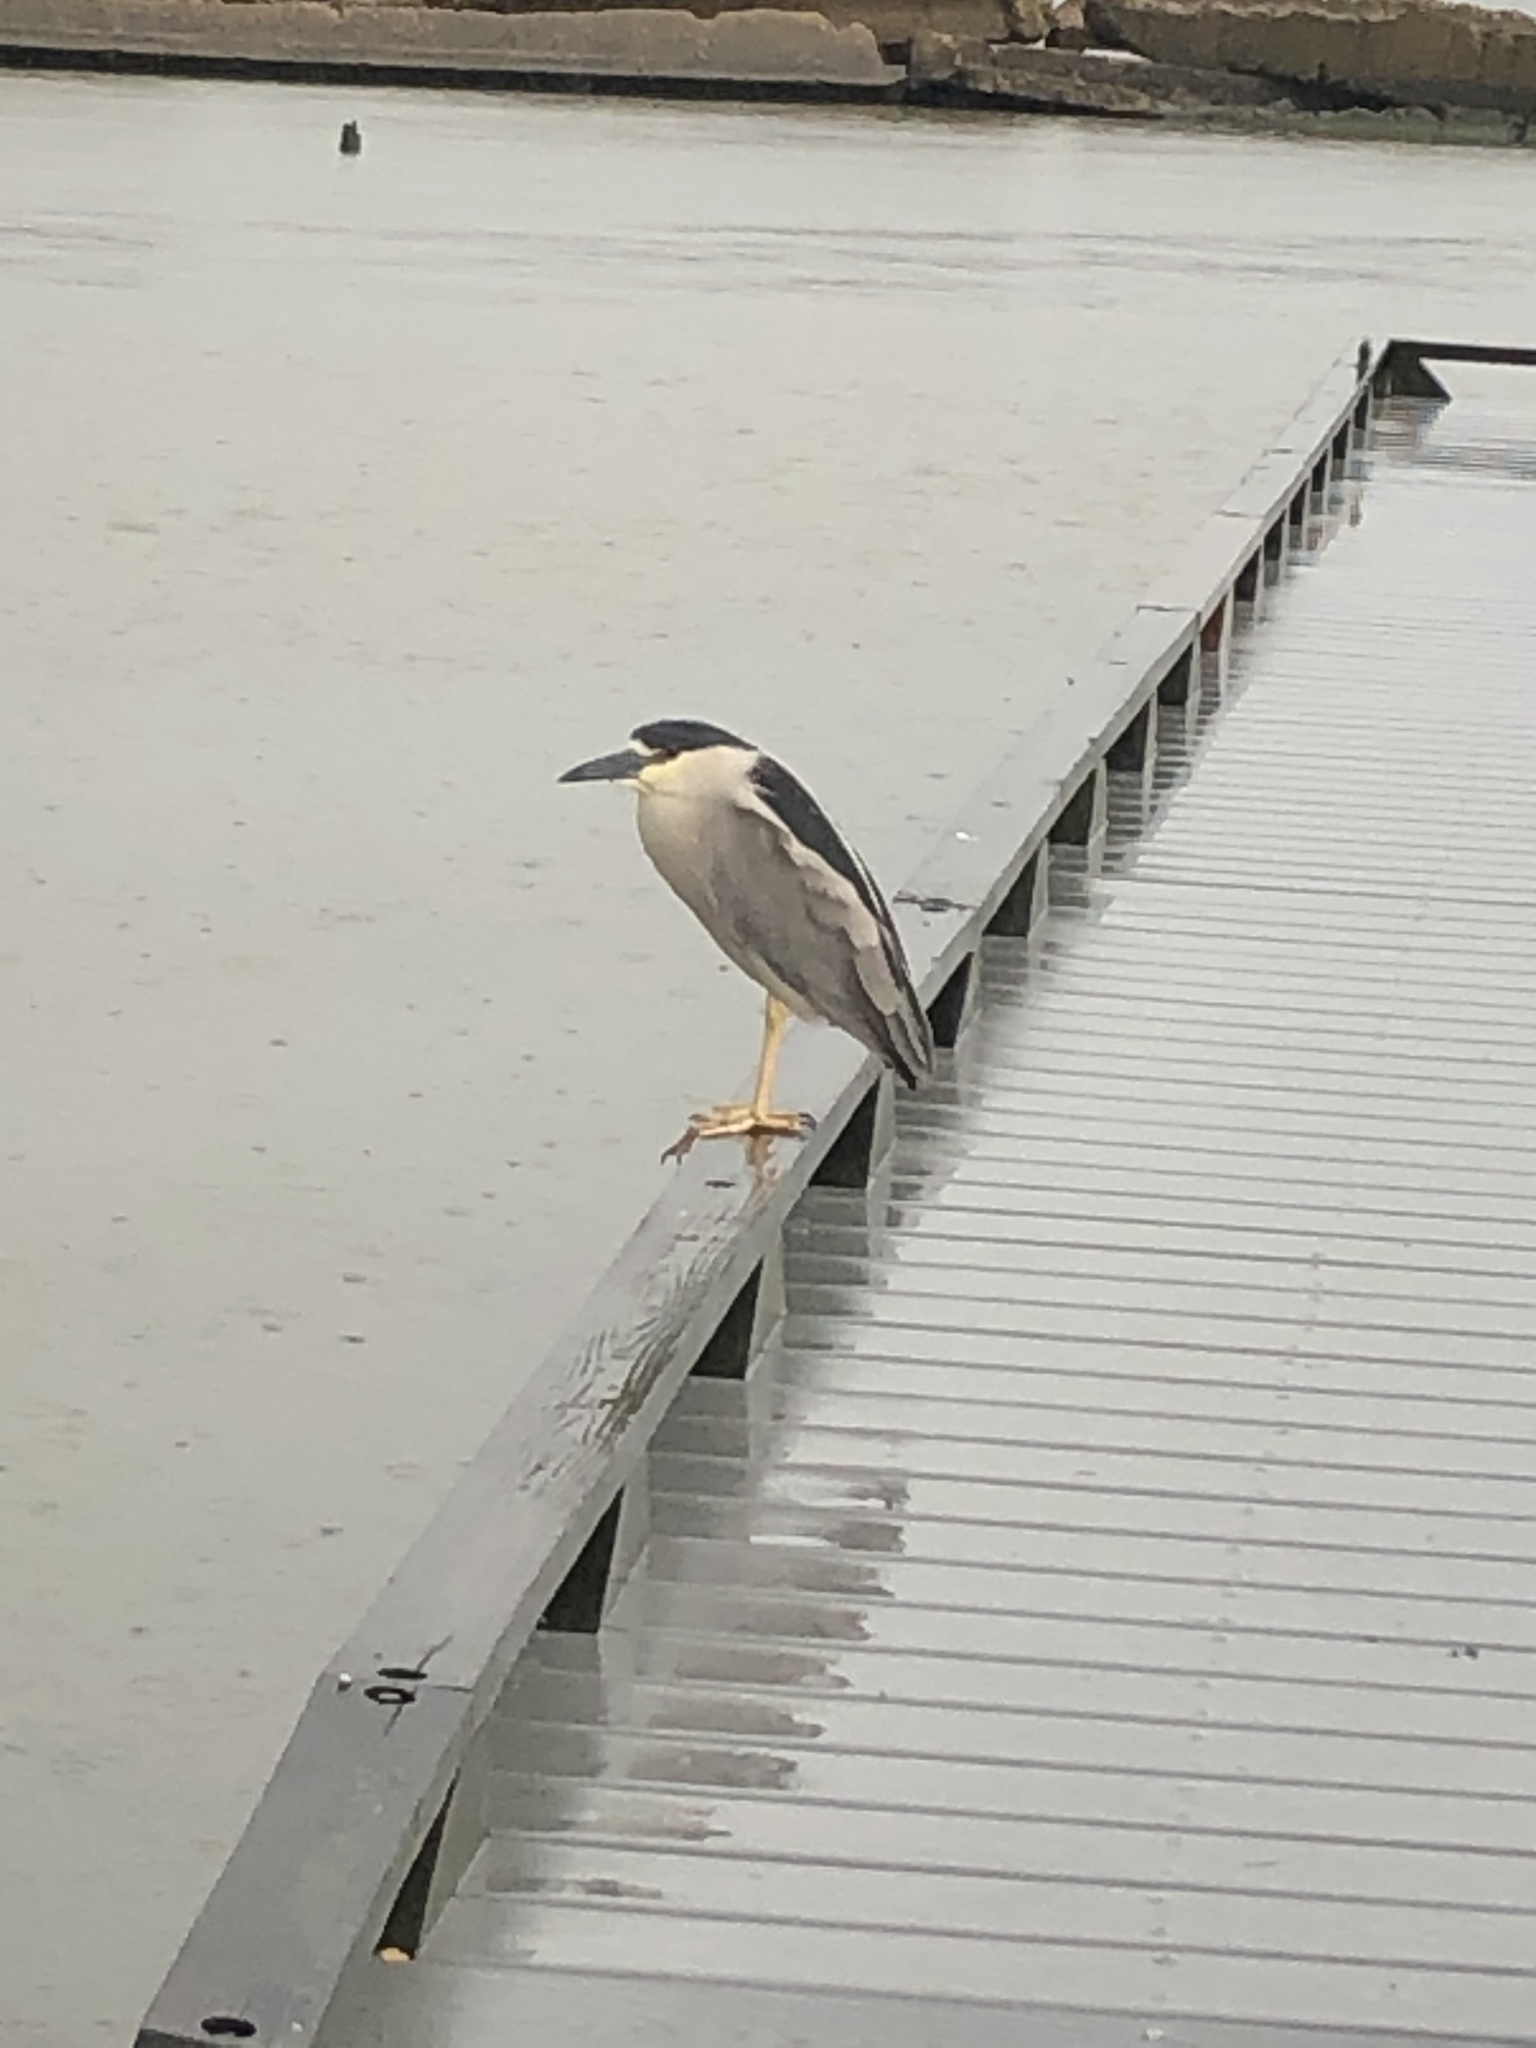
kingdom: Animalia
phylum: Chordata
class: Aves
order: Pelecaniformes
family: Ardeidae
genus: Nycticorax
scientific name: Nycticorax nycticorax
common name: Black-crowned night heron
